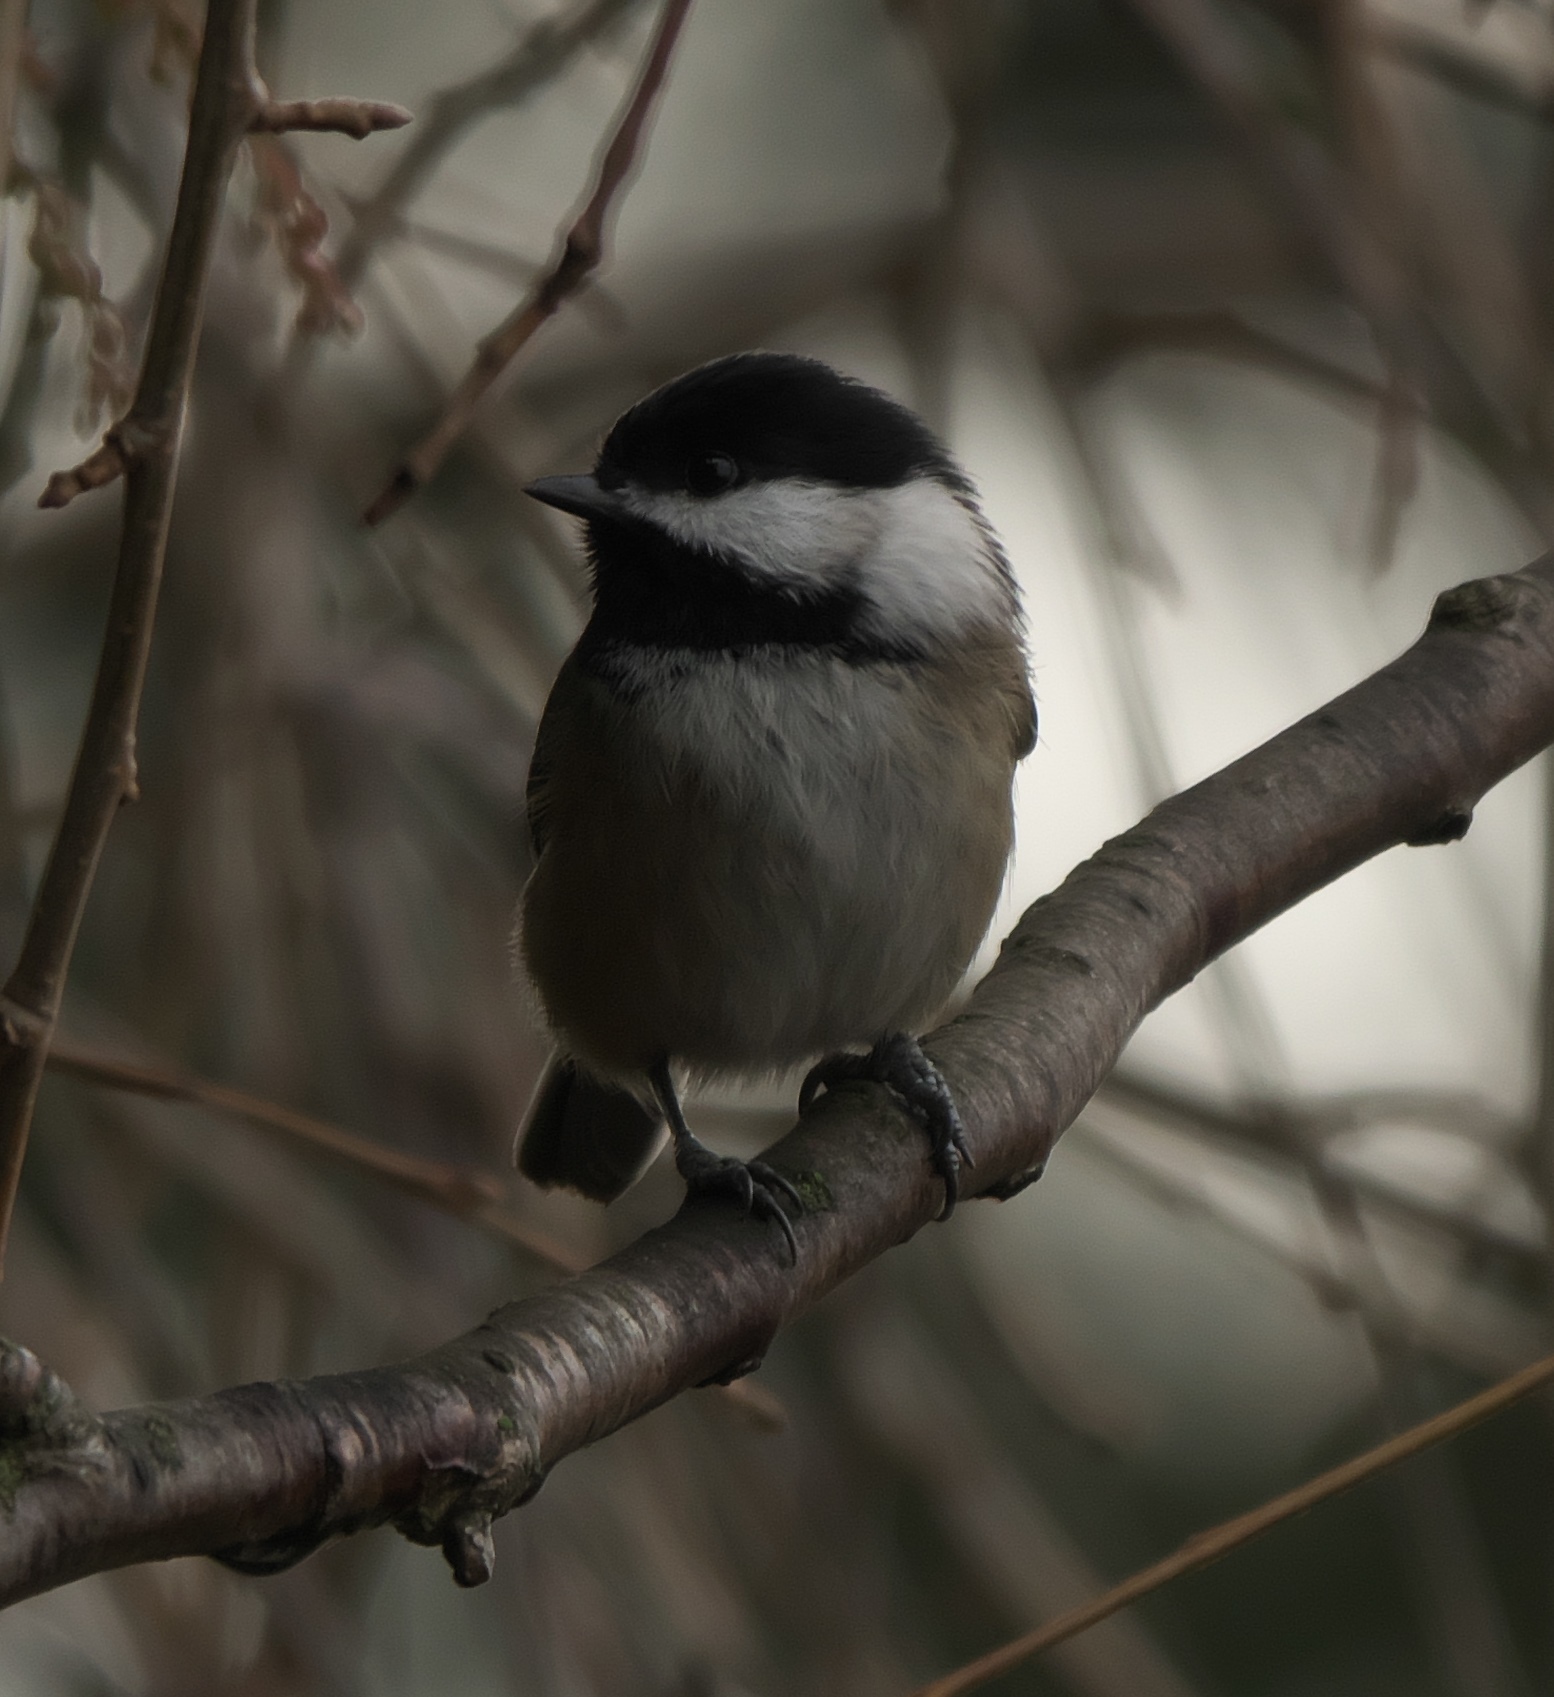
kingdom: Animalia
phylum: Chordata
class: Aves
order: Passeriformes
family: Paridae
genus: Poecile
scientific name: Poecile atricapillus
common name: Black-capped chickadee
